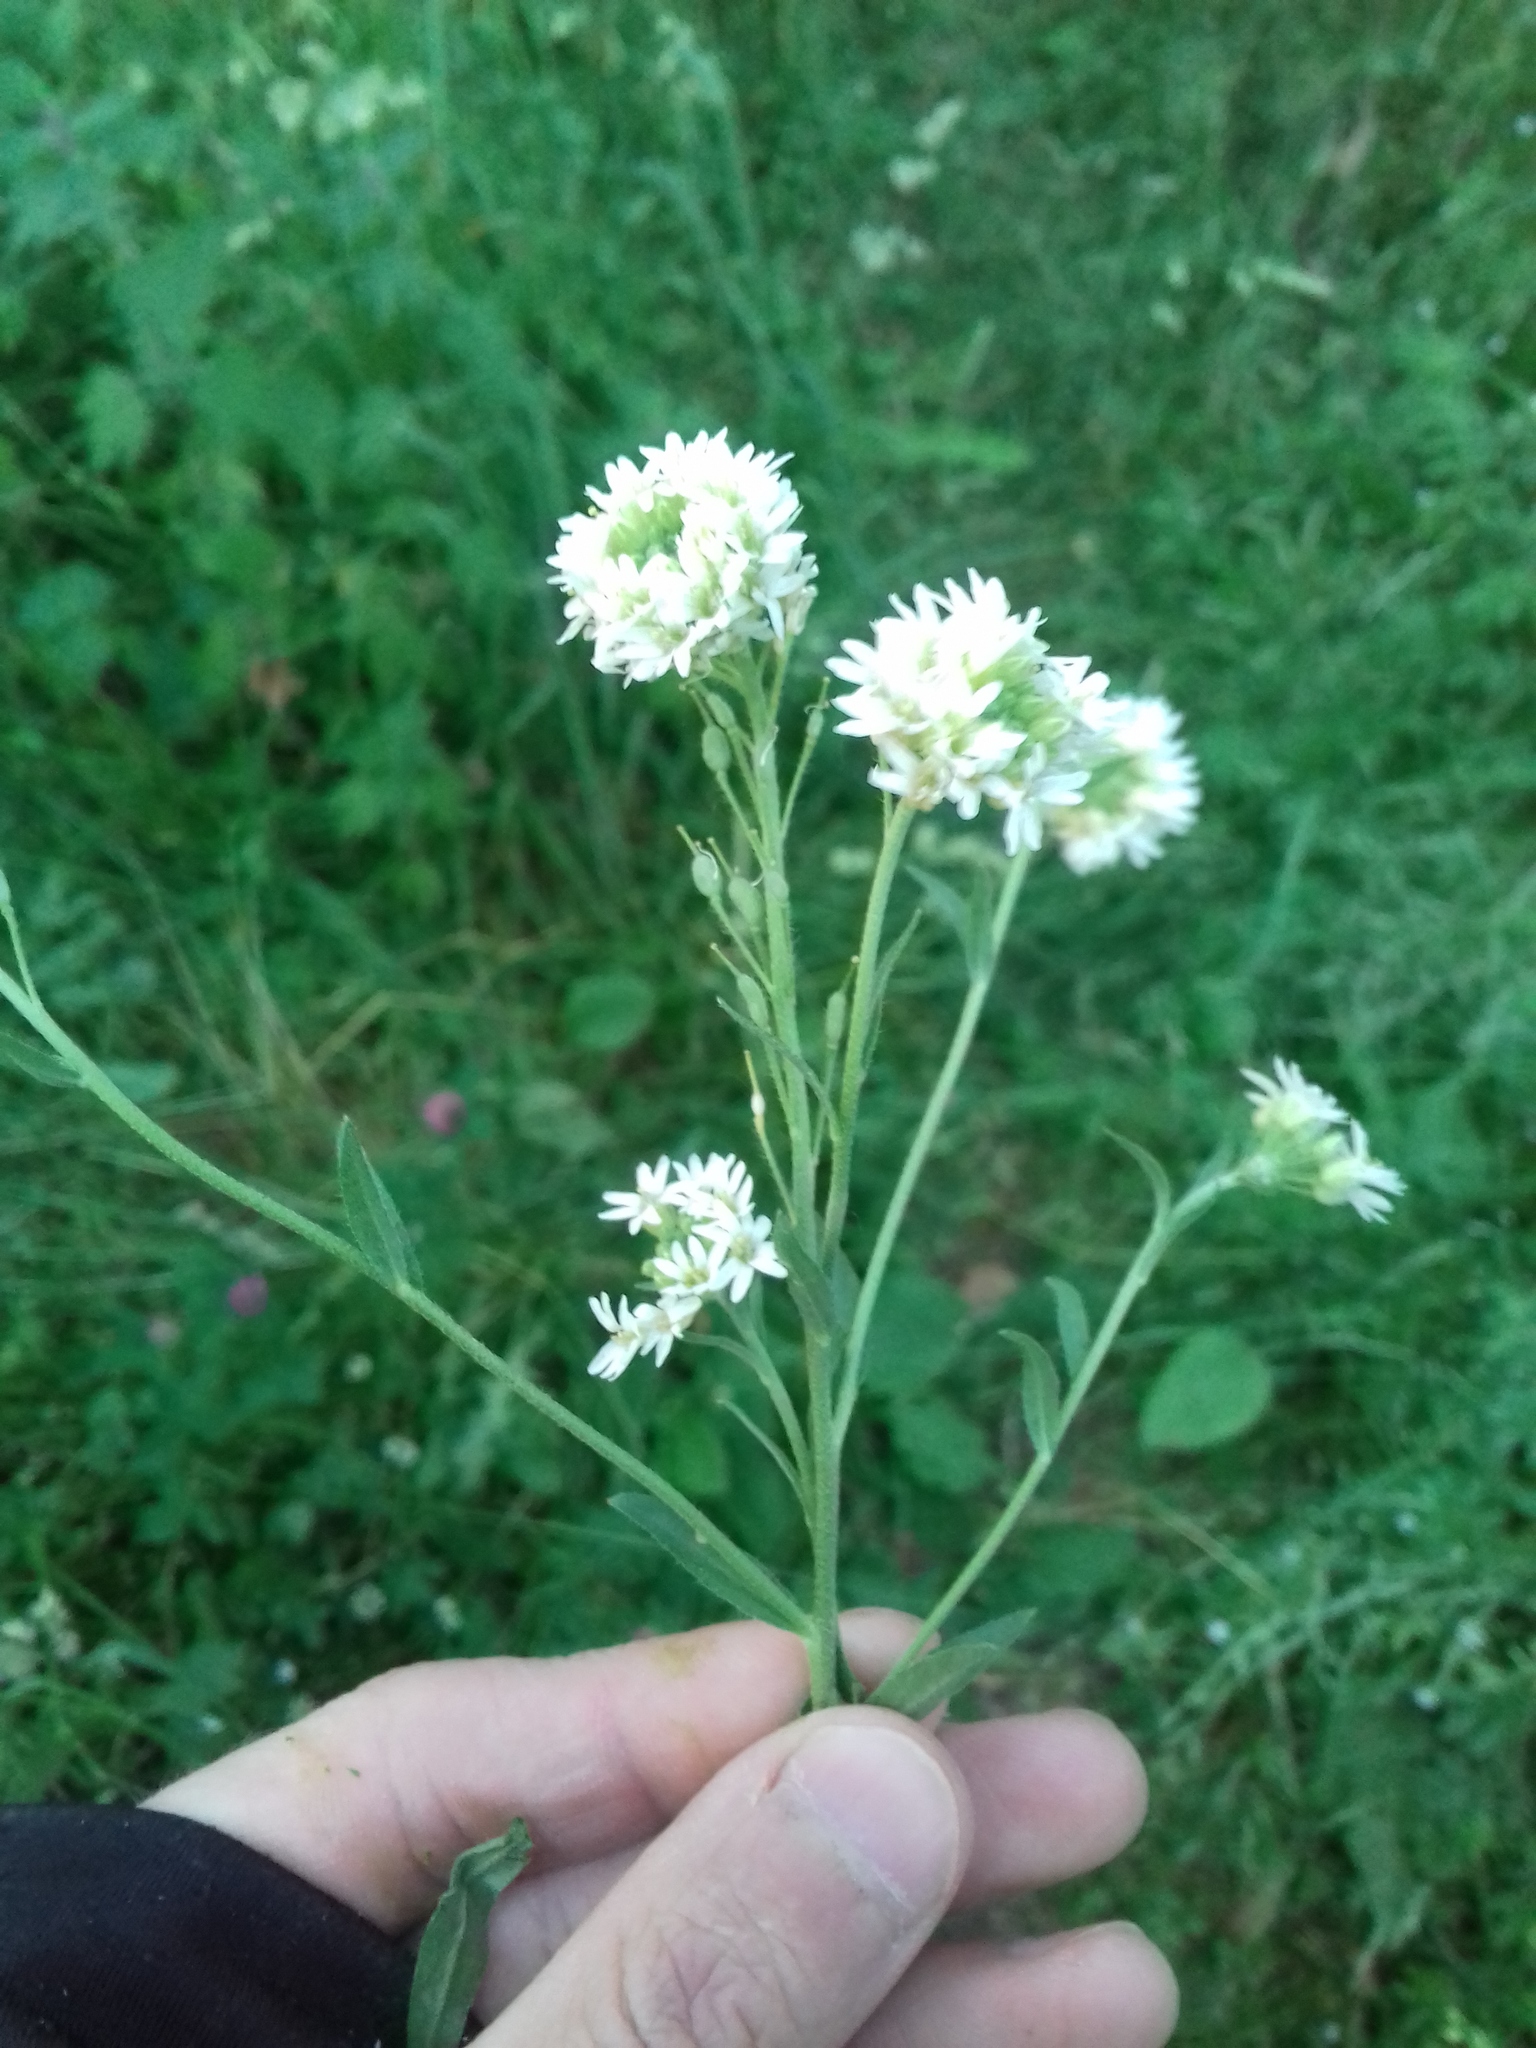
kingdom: Plantae
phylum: Tracheophyta
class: Magnoliopsida
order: Brassicales
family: Brassicaceae
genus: Berteroa
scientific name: Berteroa incana
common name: Hoary alison
